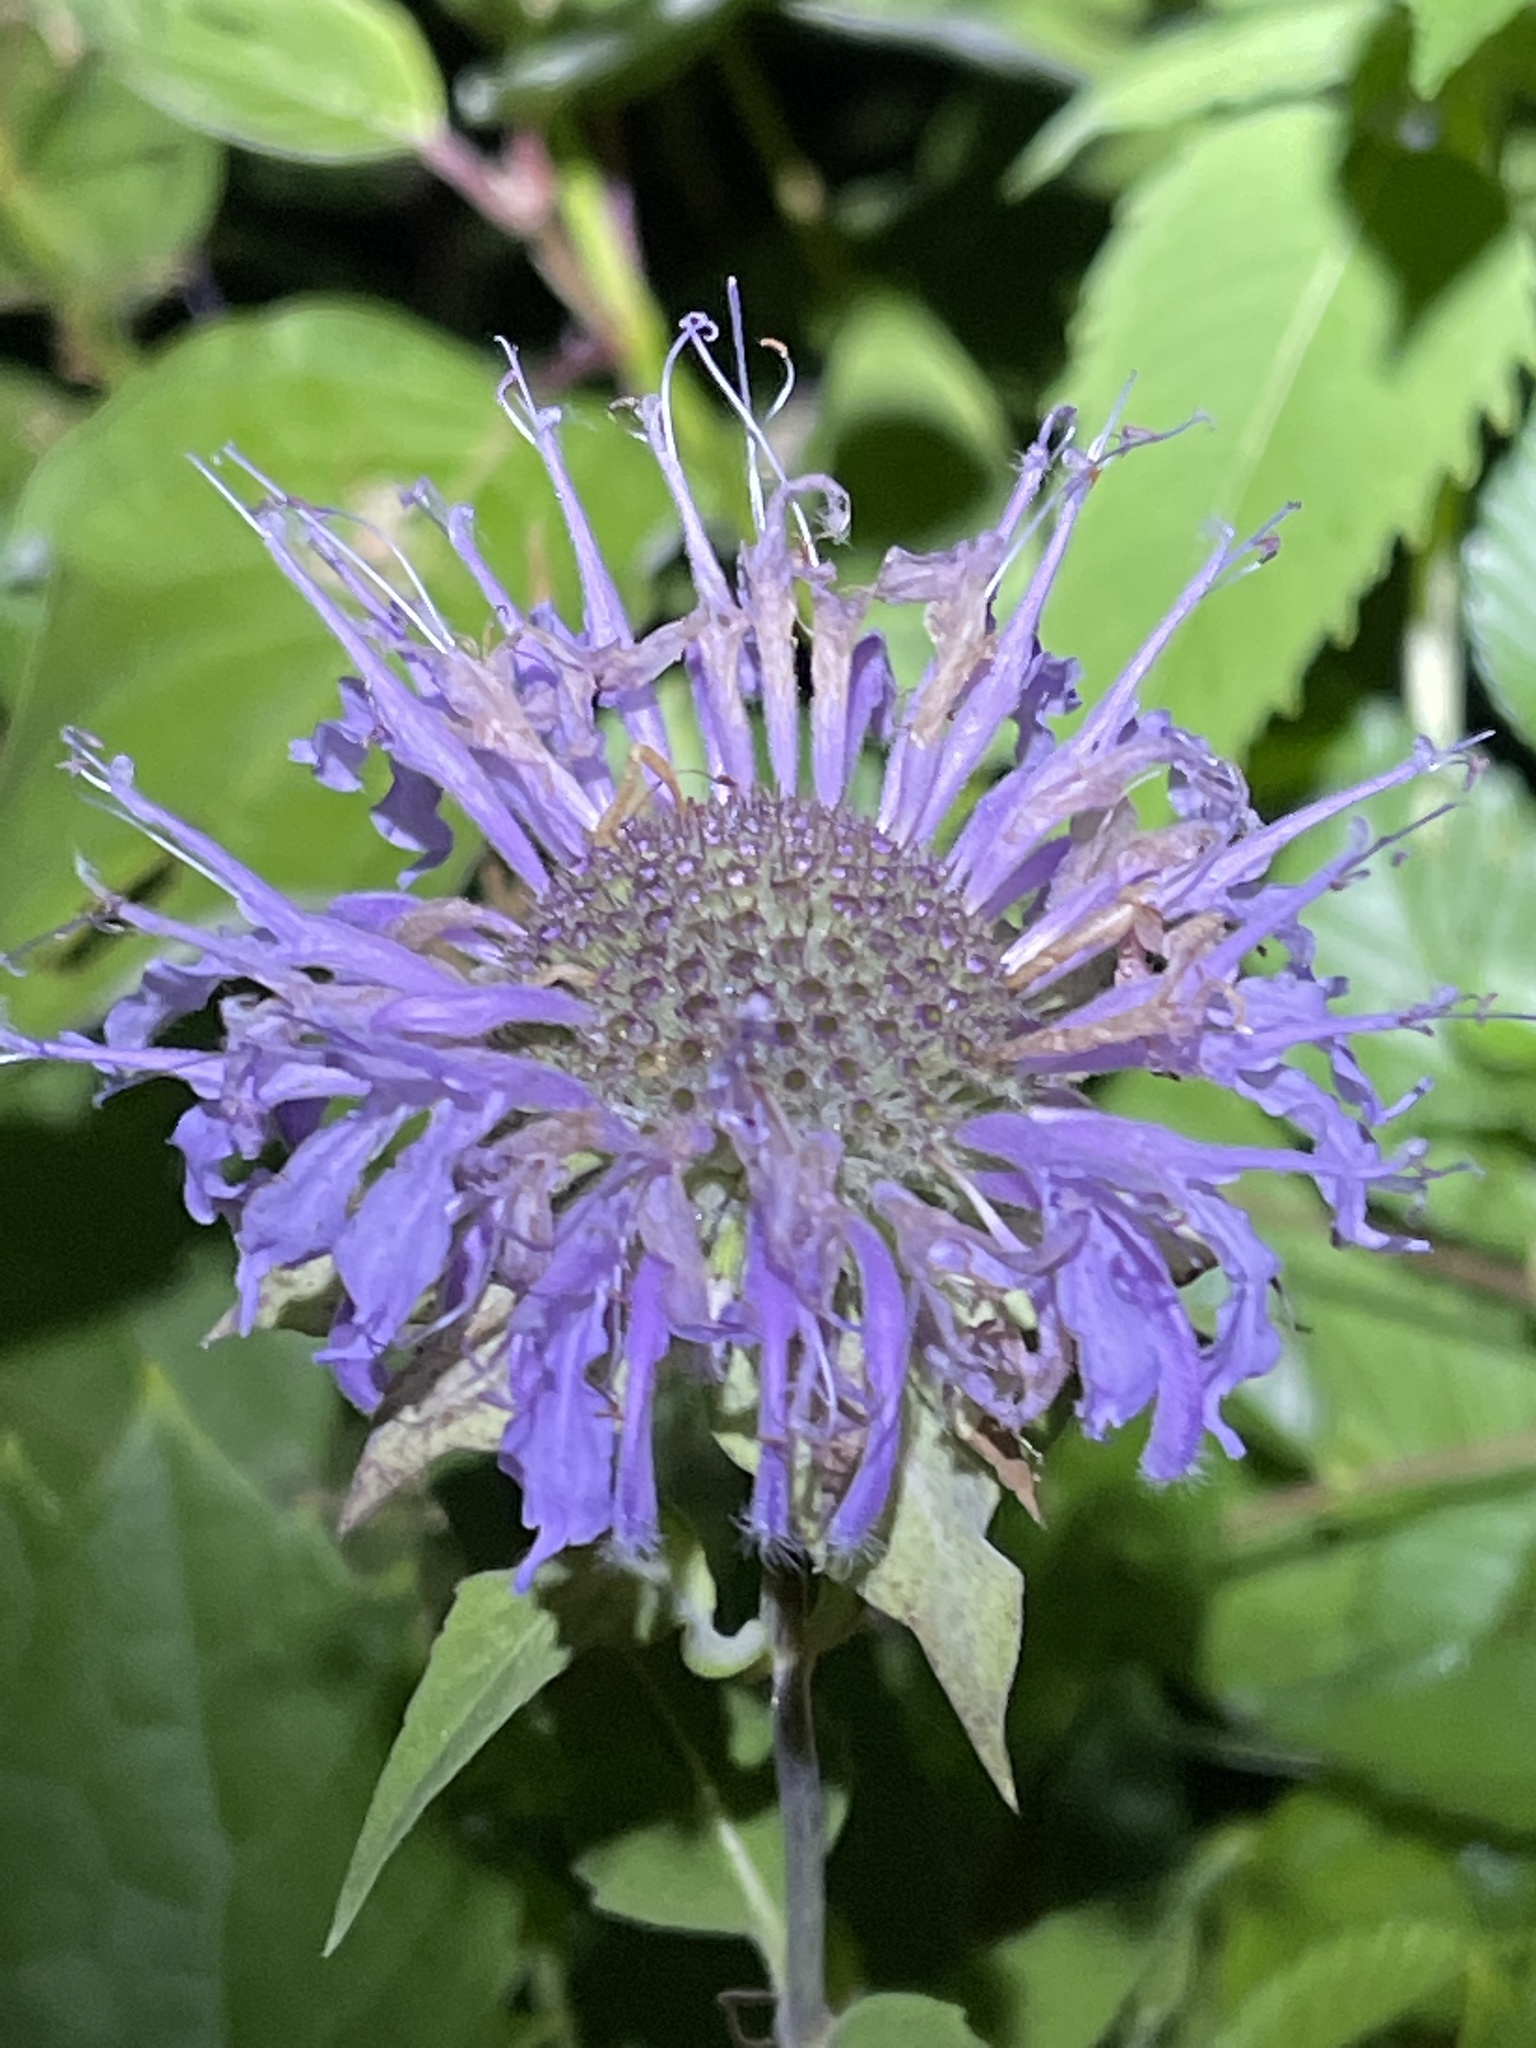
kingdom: Plantae
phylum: Tracheophyta
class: Magnoliopsida
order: Lamiales
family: Lamiaceae
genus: Monarda
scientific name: Monarda fistulosa
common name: Purple beebalm
